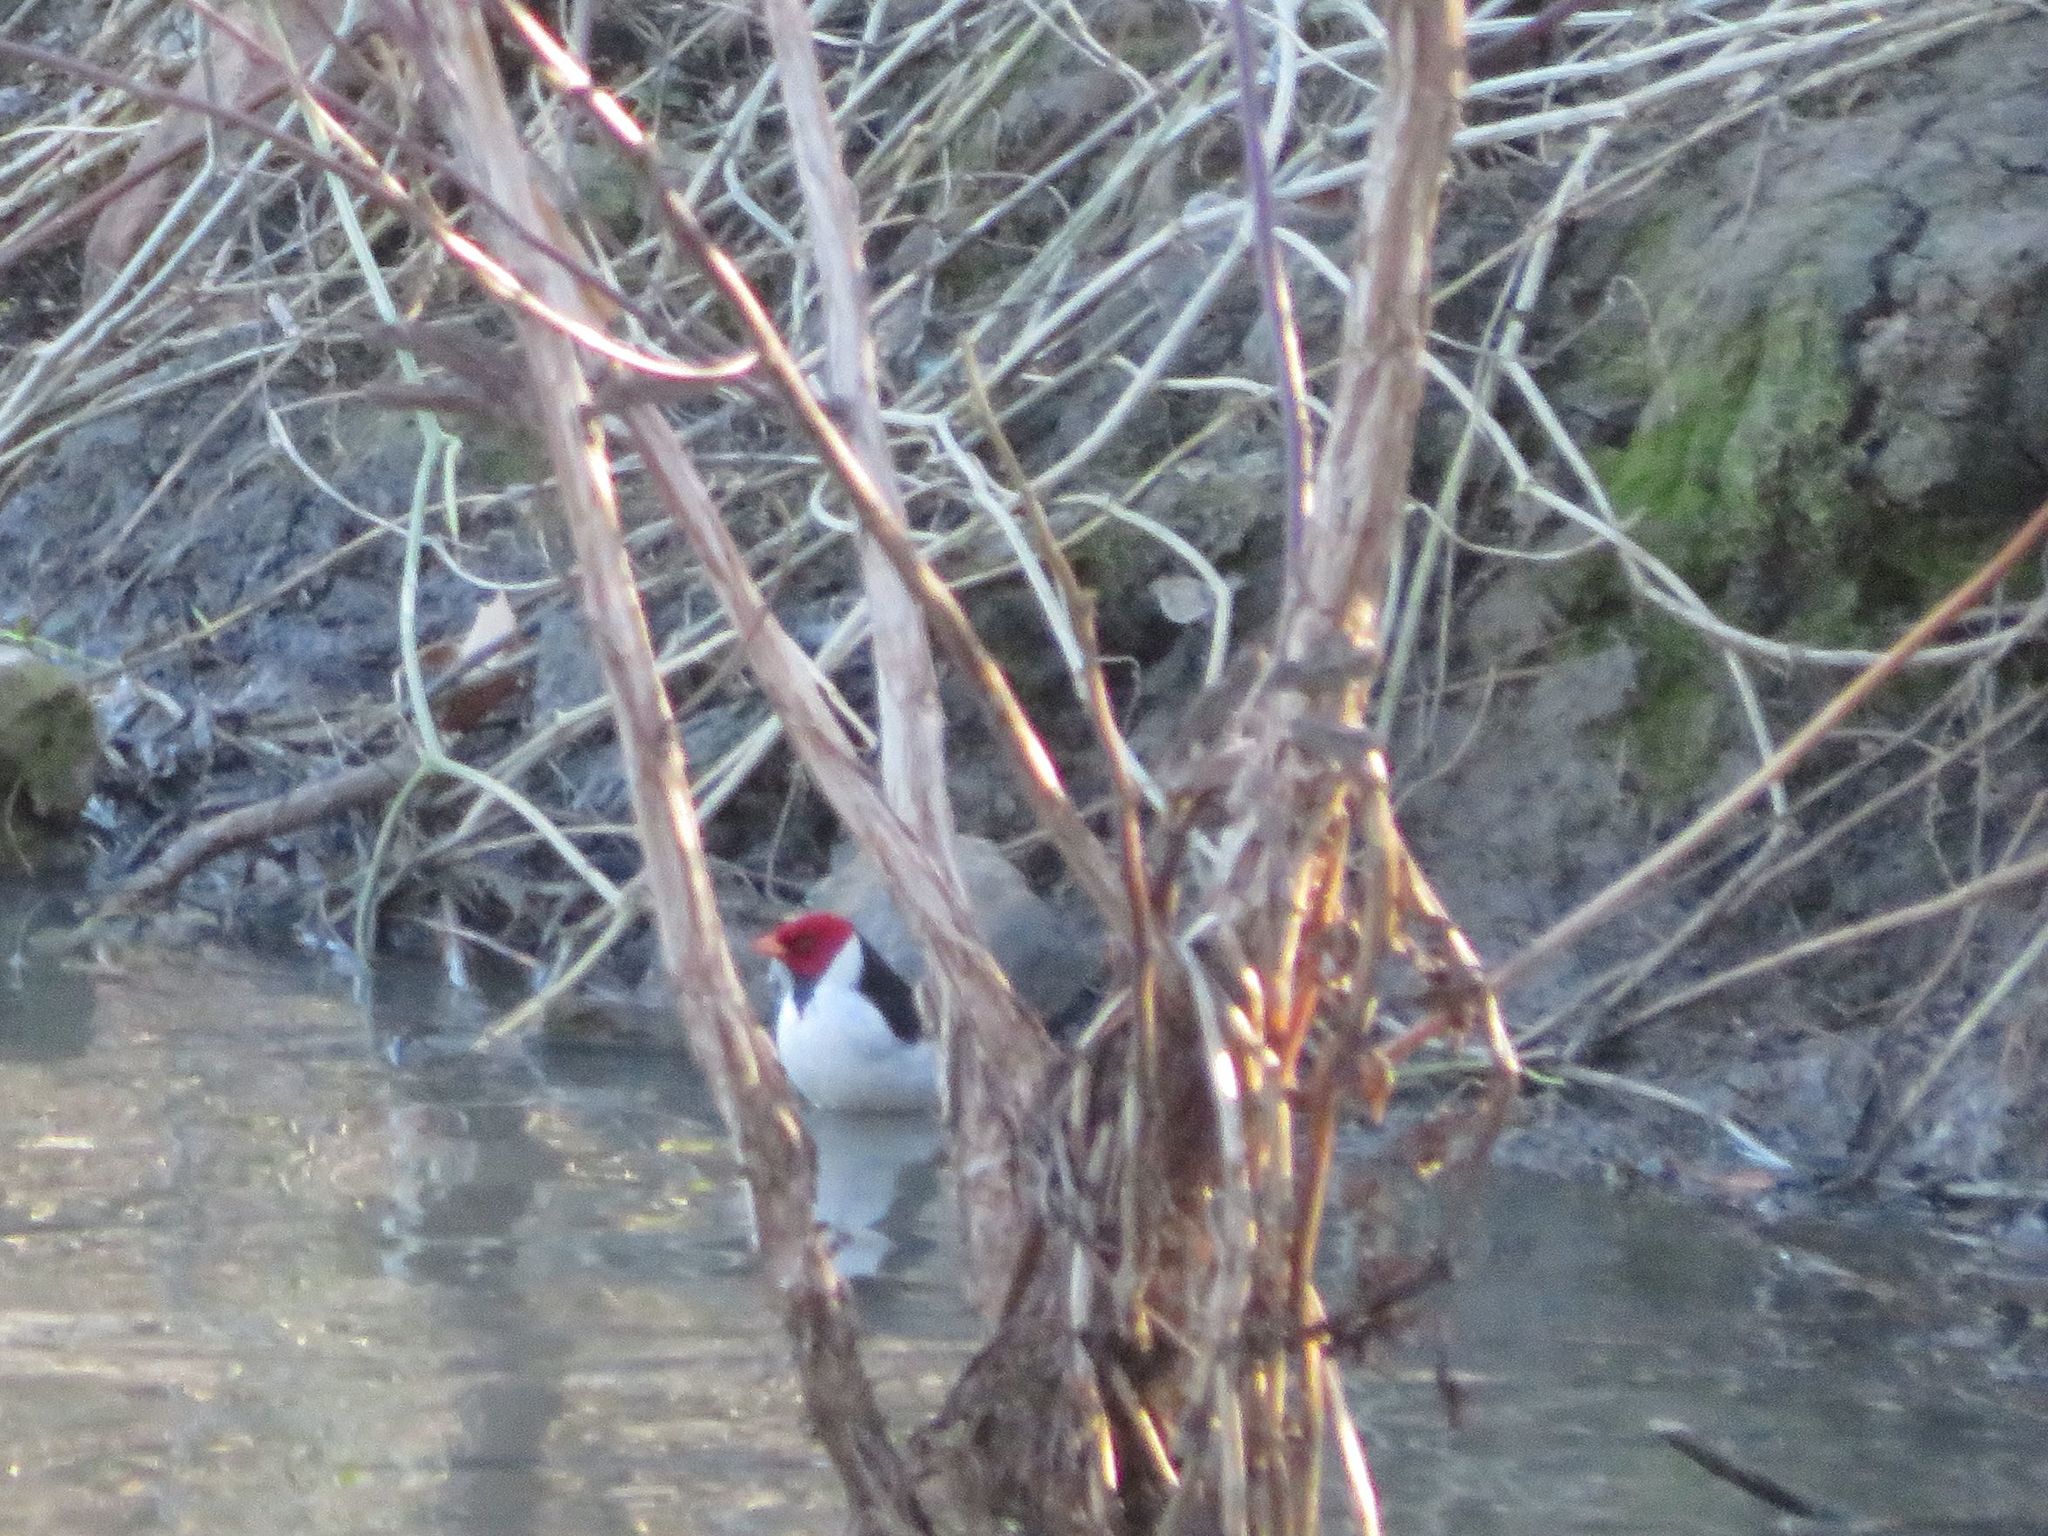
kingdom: Animalia
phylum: Chordata
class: Aves
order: Passeriformes
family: Thraupidae
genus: Paroaria
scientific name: Paroaria capitata
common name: Yellow-billed cardinal
